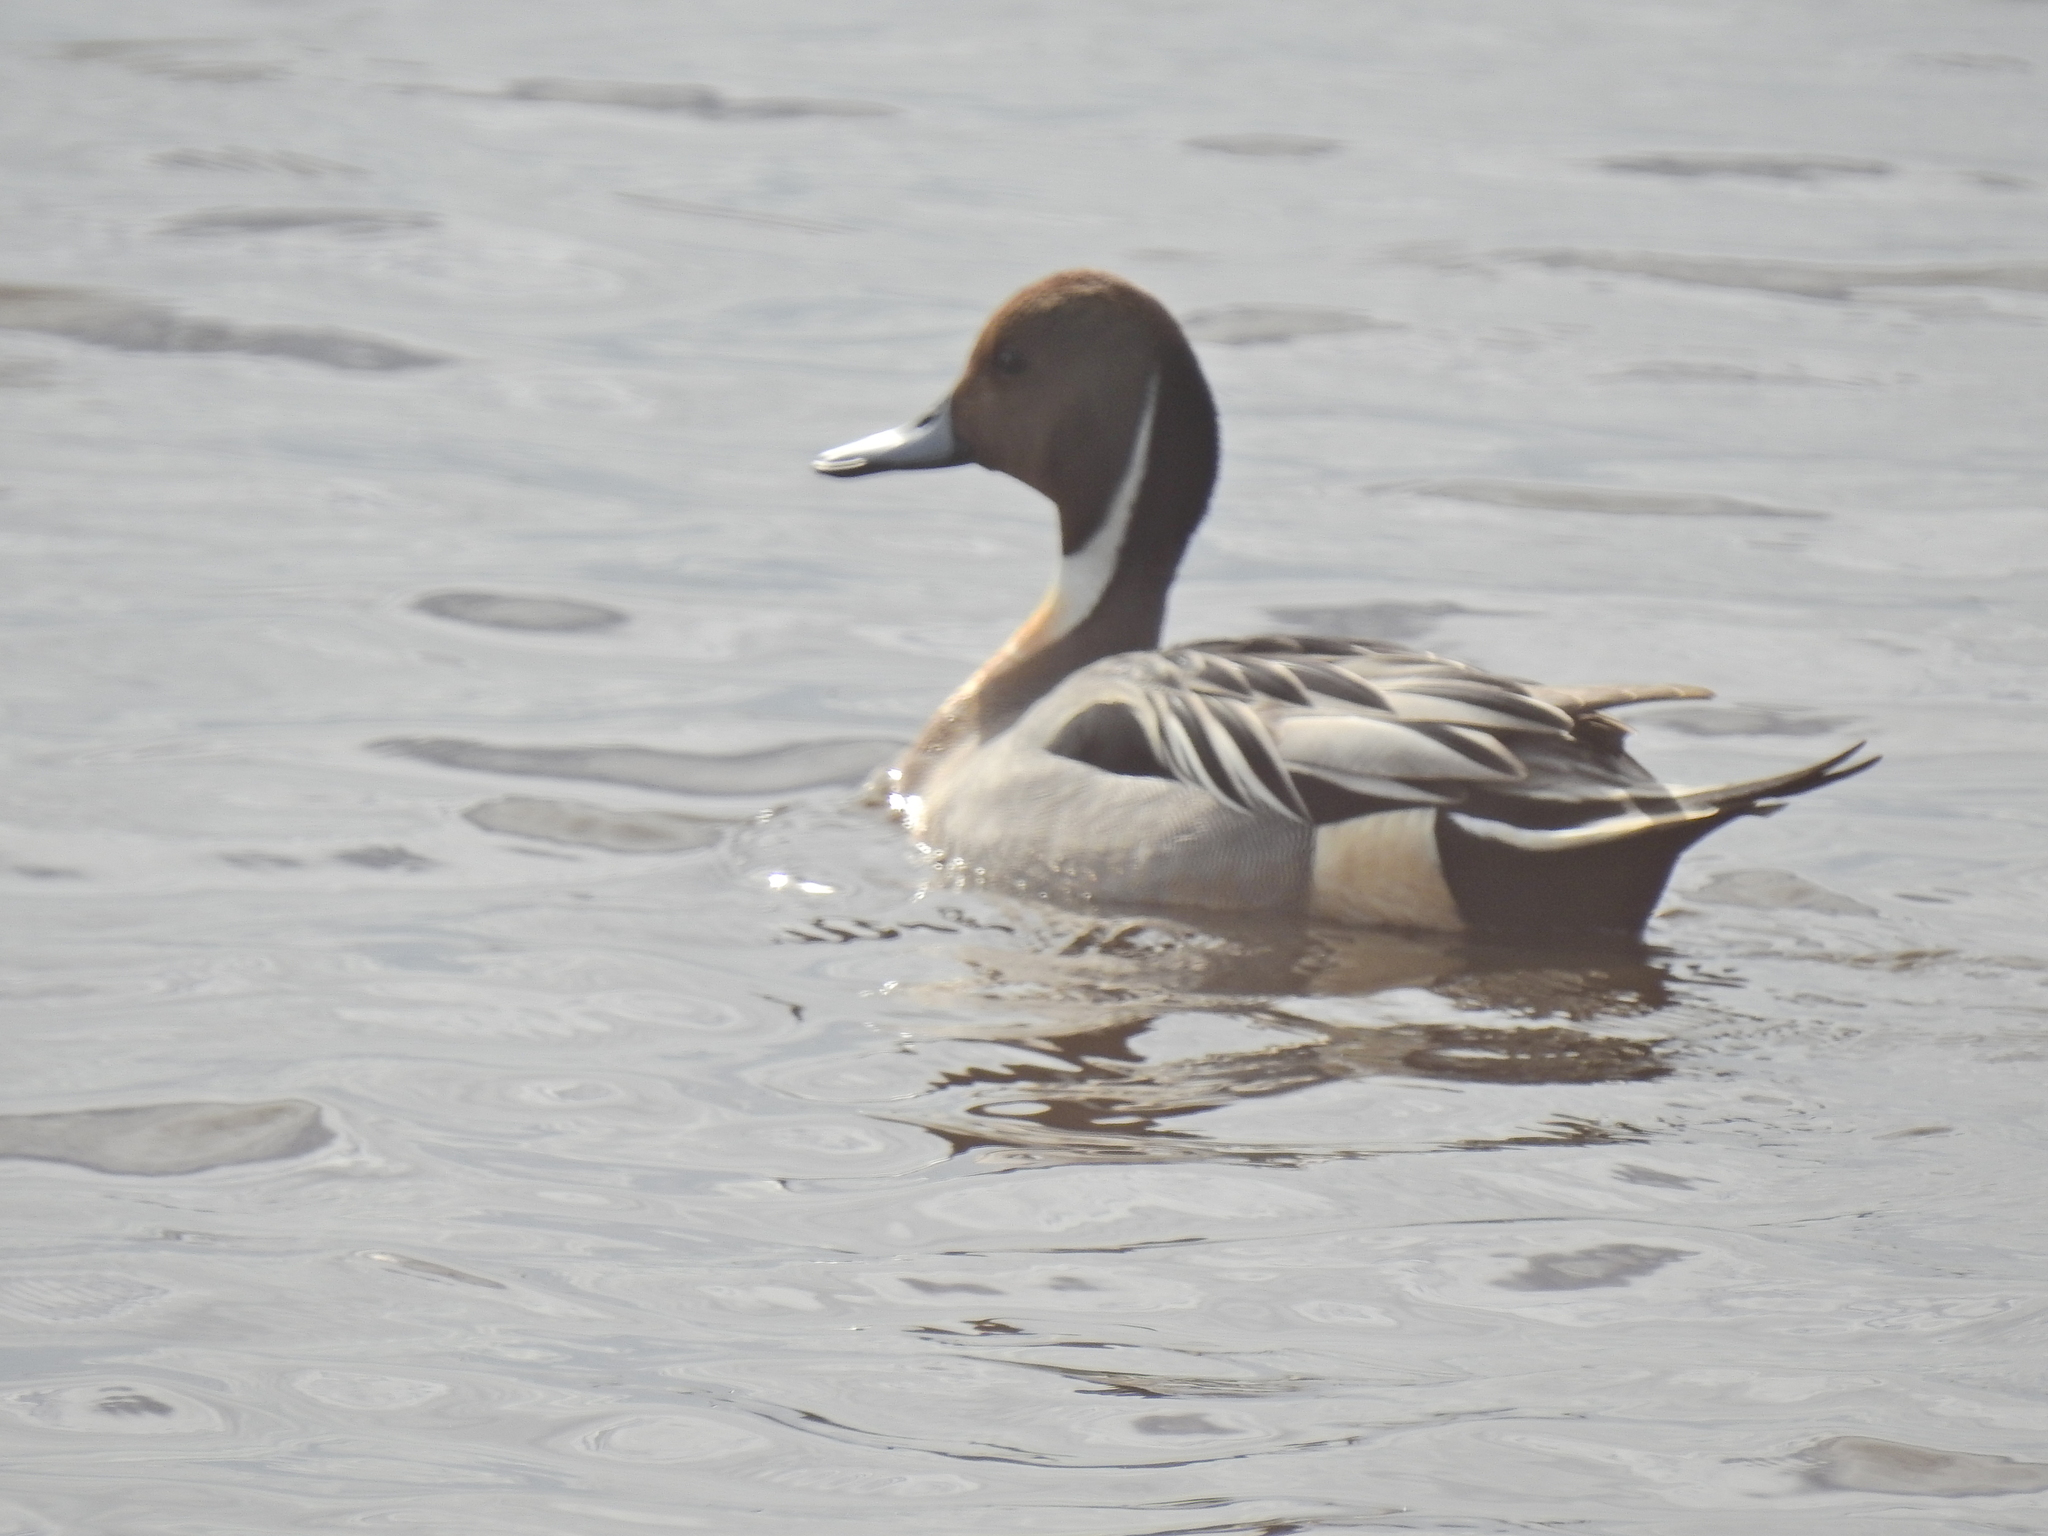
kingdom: Animalia
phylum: Chordata
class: Aves
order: Anseriformes
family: Anatidae
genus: Anas
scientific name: Anas acuta
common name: Northern pintail
